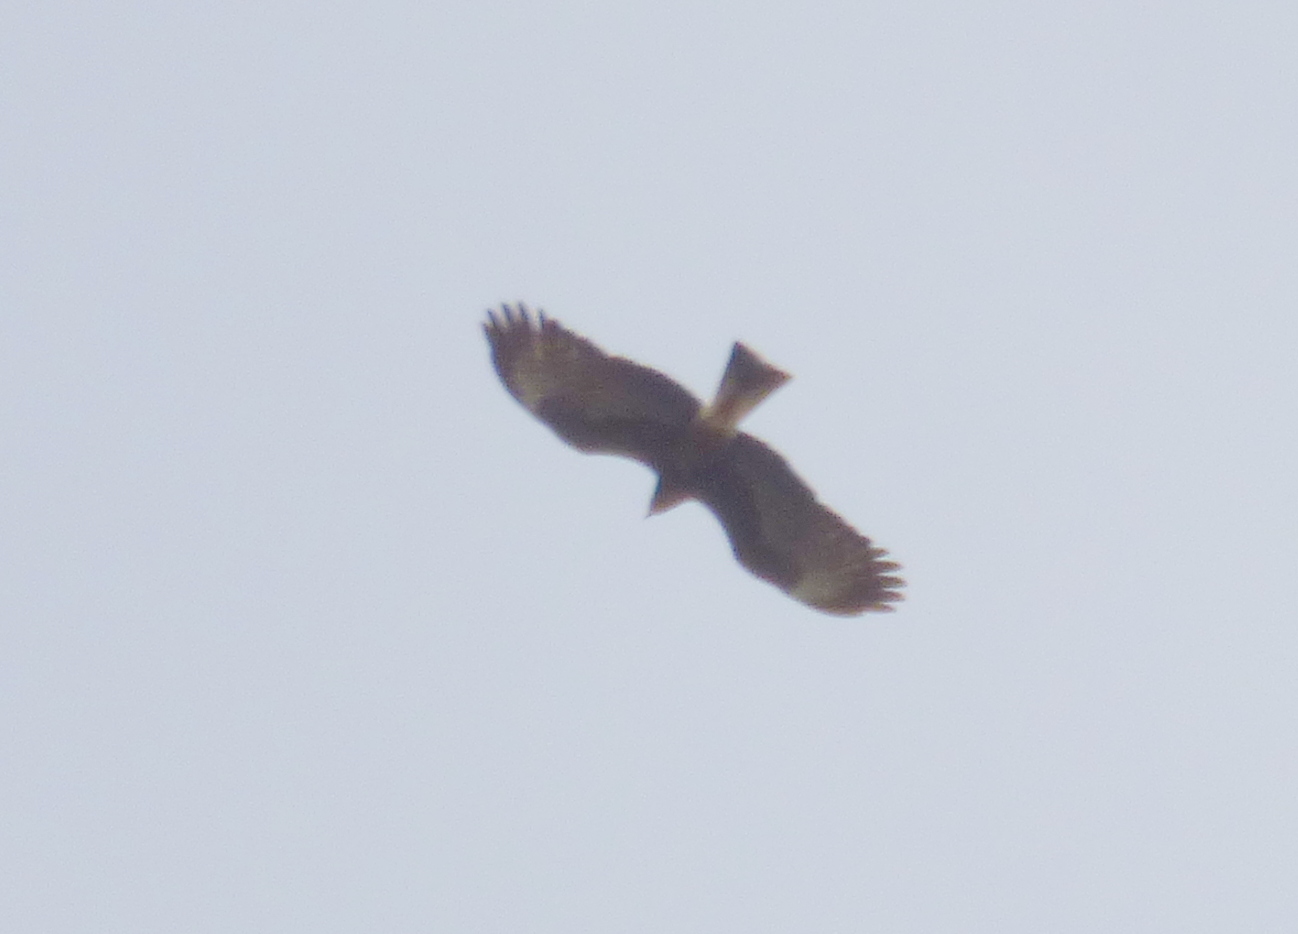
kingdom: Animalia
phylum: Chordata
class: Aves
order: Accipitriformes
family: Accipitridae
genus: Rostrhamus
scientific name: Rostrhamus sociabilis
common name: Snail kite
